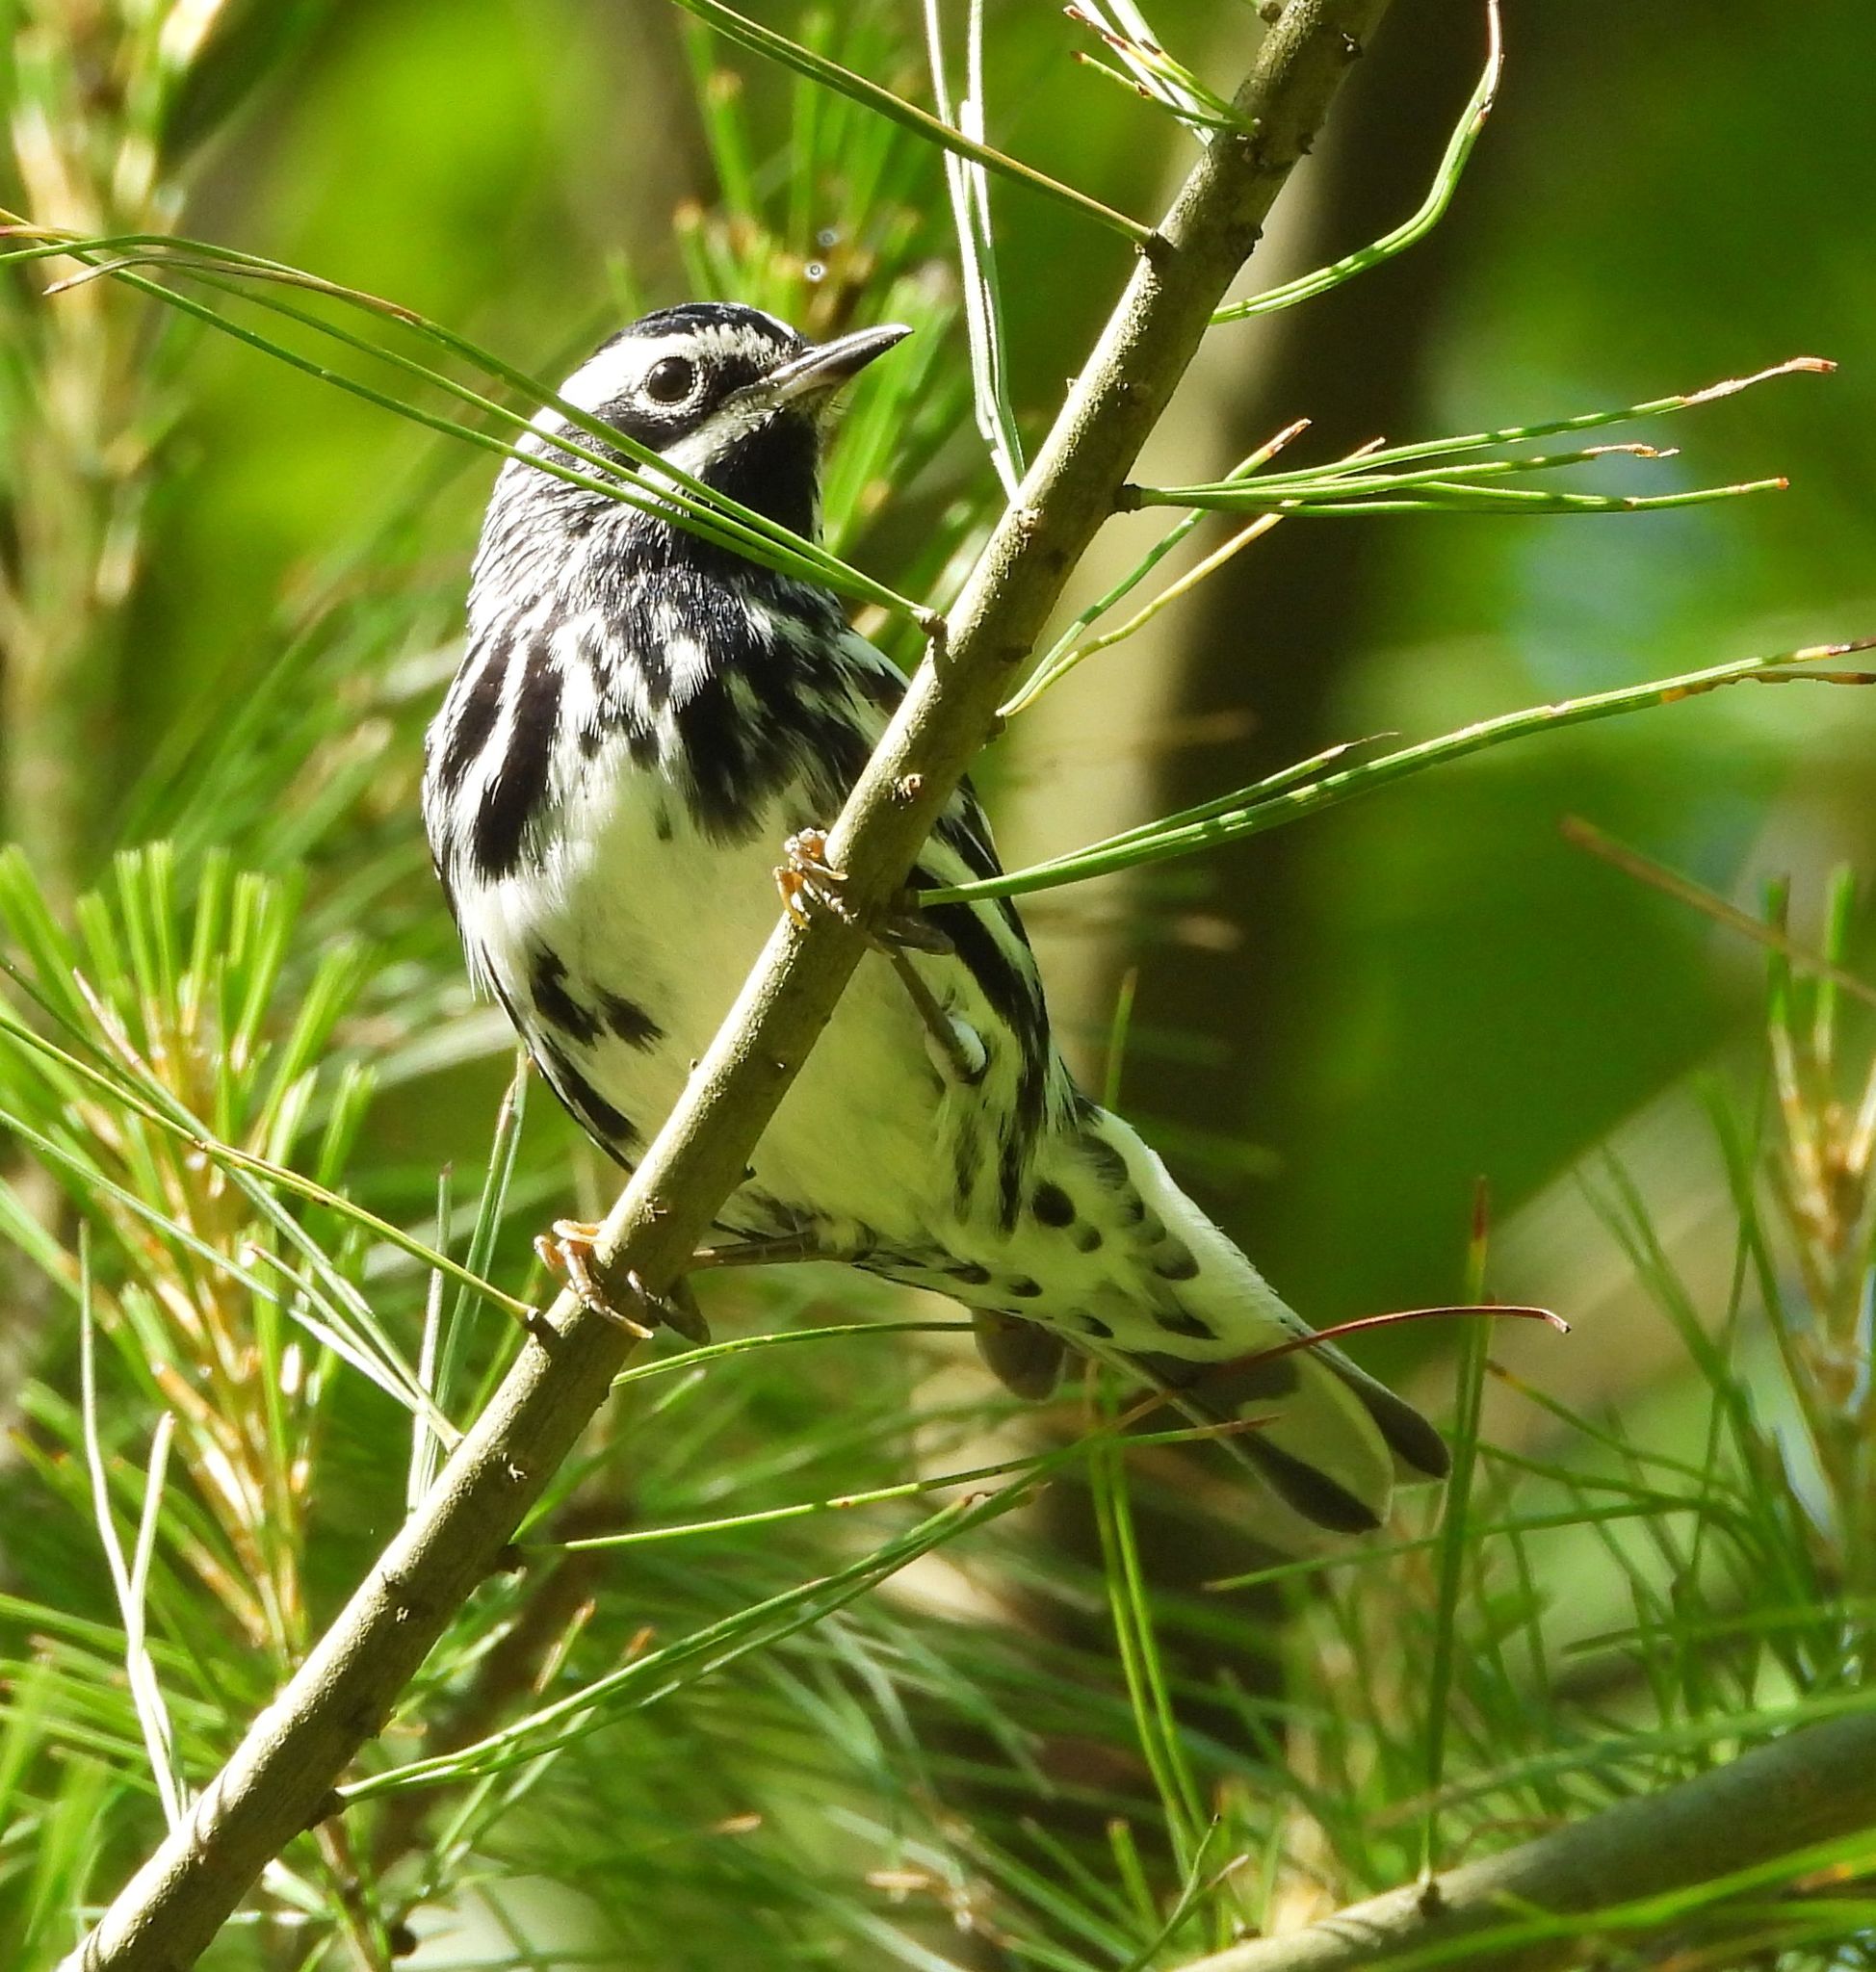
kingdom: Animalia
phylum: Chordata
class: Aves
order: Passeriformes
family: Parulidae
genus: Mniotilta
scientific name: Mniotilta varia
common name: Black-and-white warbler
